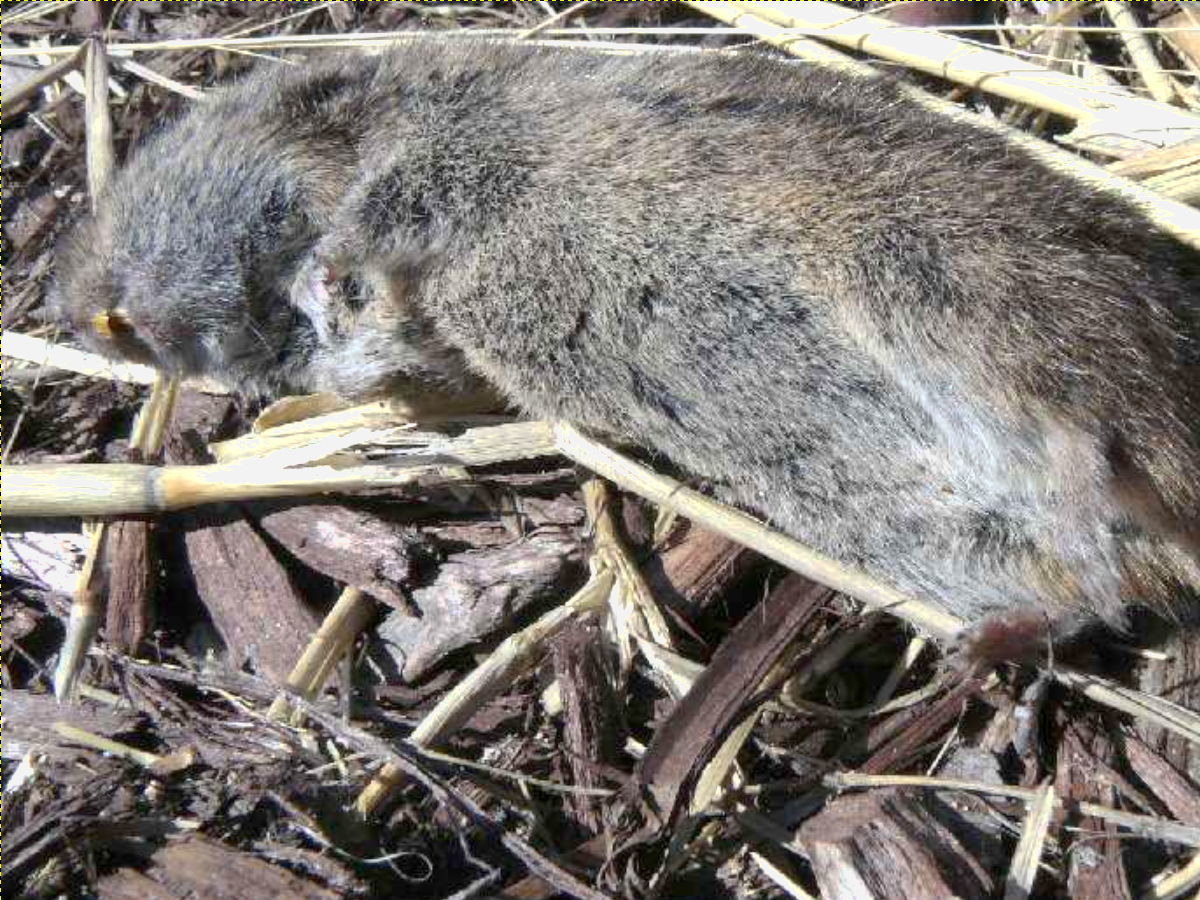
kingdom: Animalia
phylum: Chordata
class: Mammalia
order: Rodentia
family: Cricetidae
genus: Microtus
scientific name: Microtus pennsylvanicus
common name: Meadow vole
